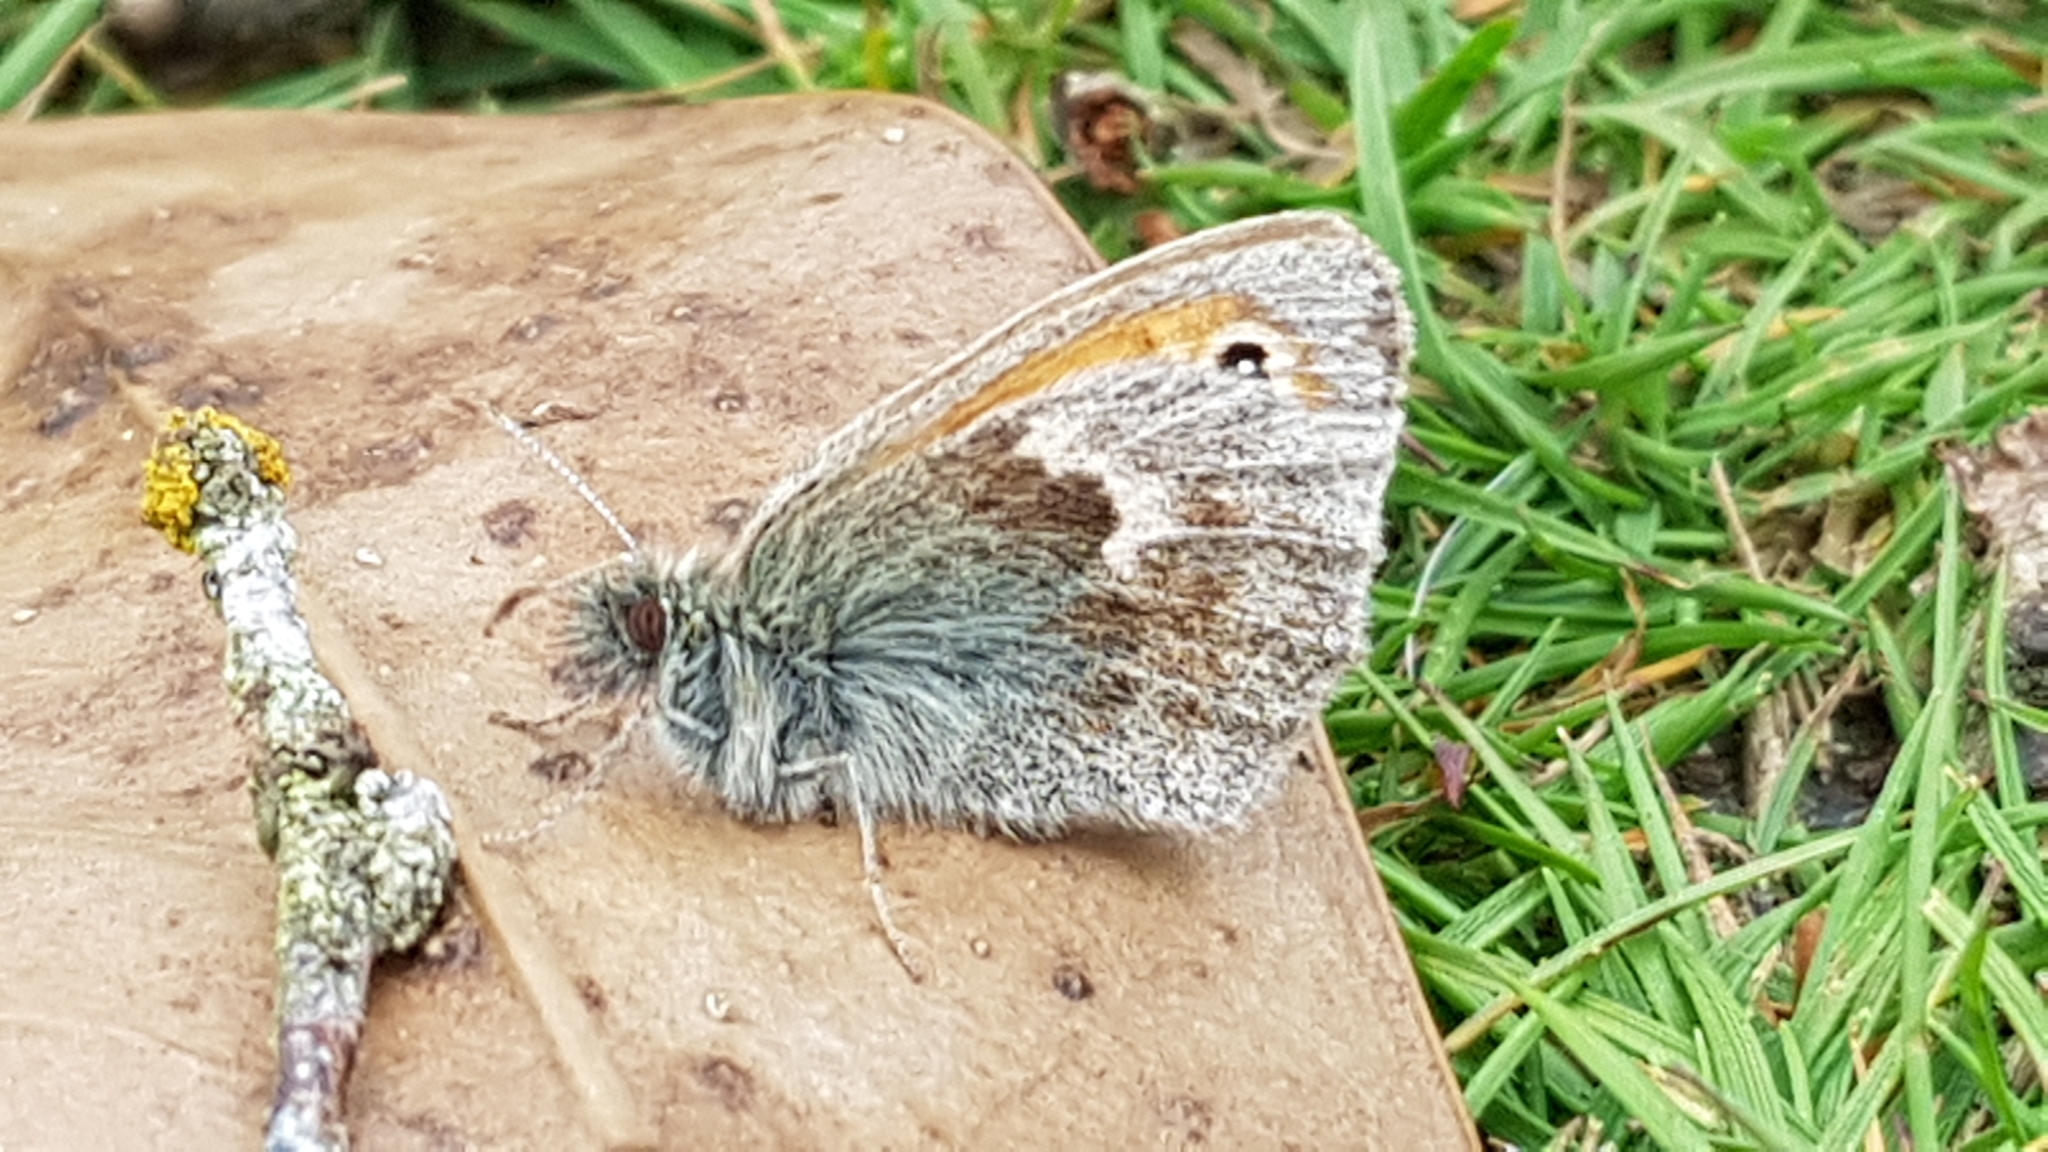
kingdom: Animalia
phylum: Arthropoda
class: Insecta
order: Lepidoptera
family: Nymphalidae
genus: Coenonympha
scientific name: Coenonympha pamphilus
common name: Small heath
